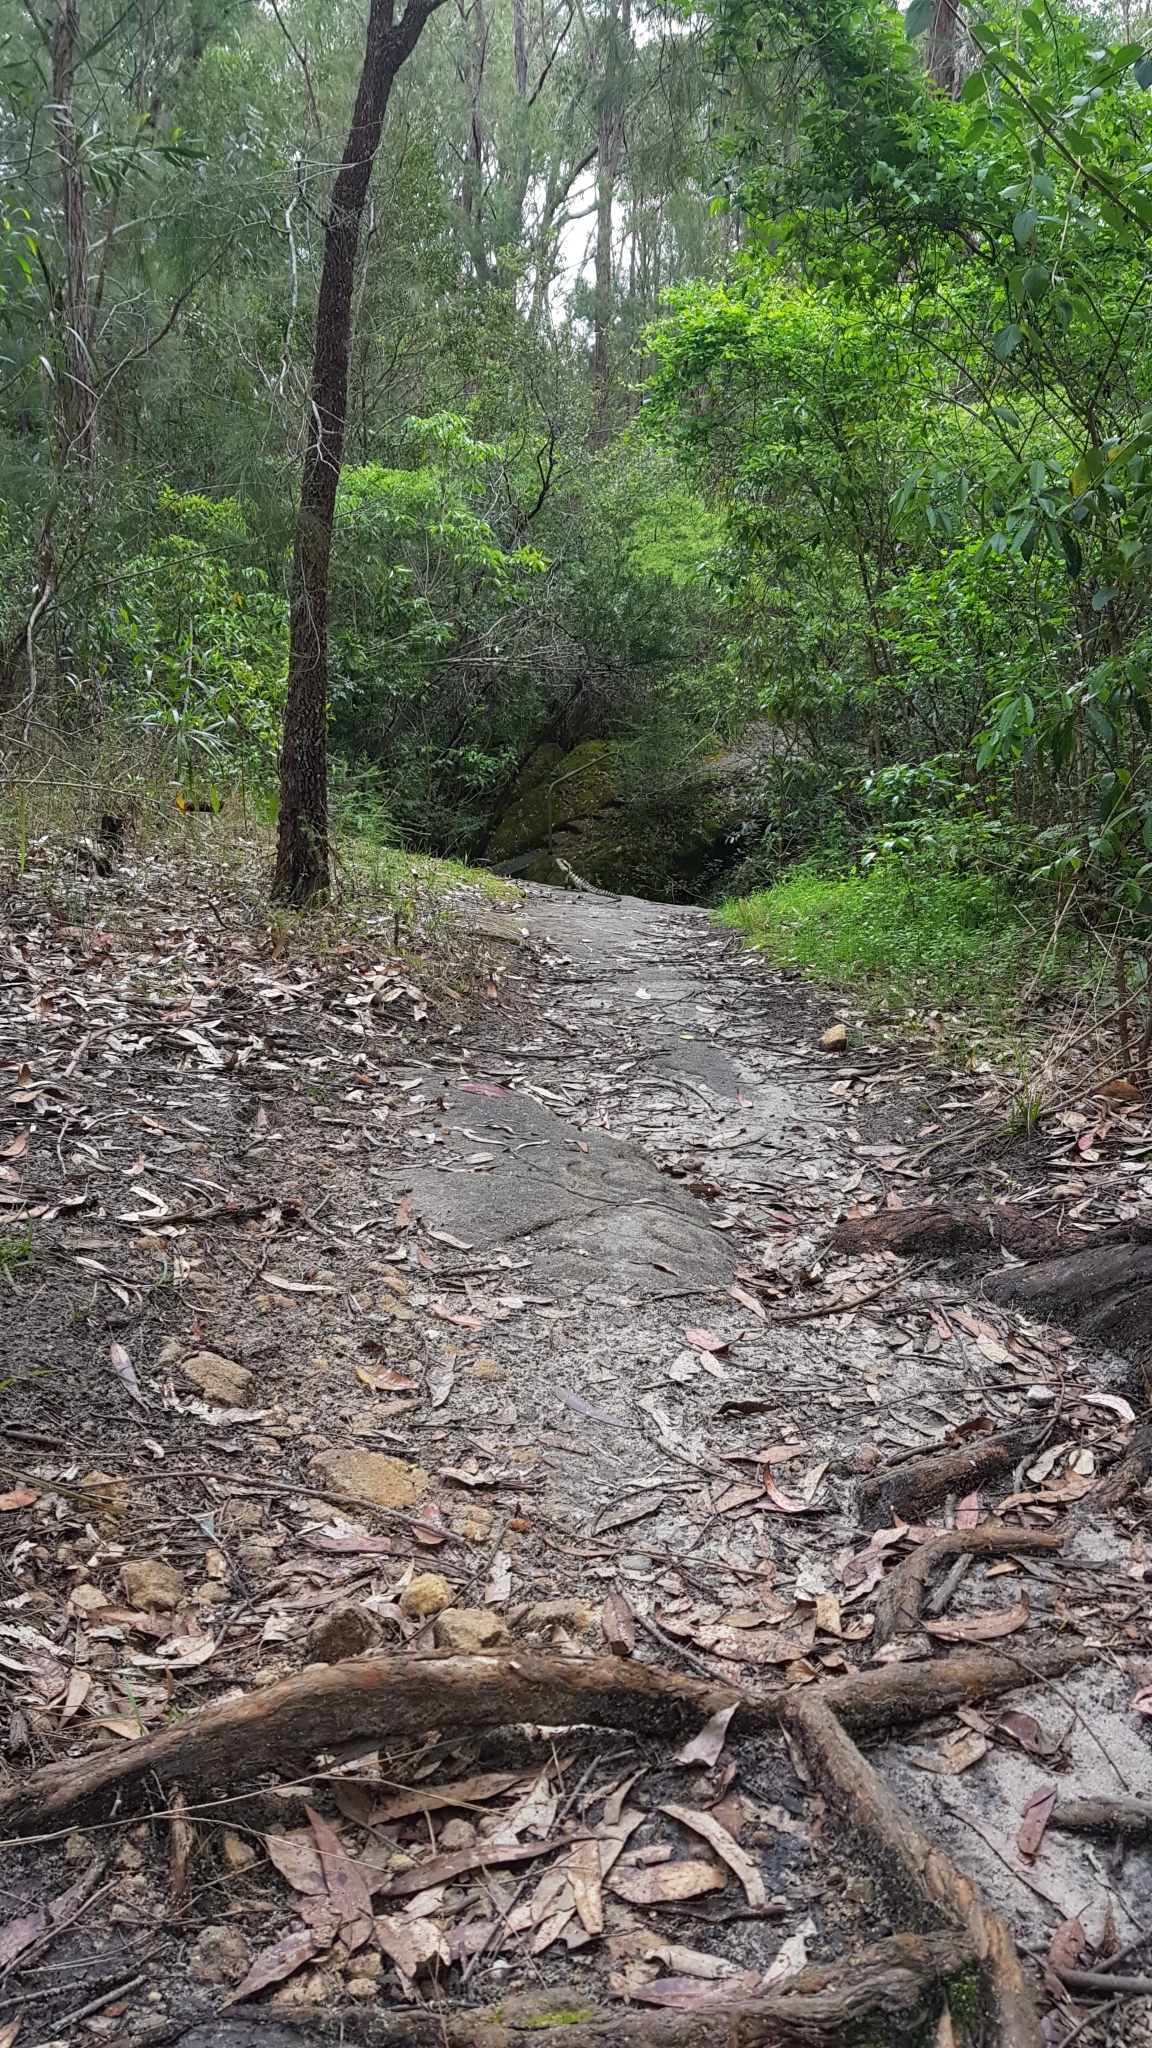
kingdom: Animalia
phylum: Chordata
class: Squamata
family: Agamidae
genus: Intellagama
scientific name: Intellagama lesueurii
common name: Eastern water dragon
